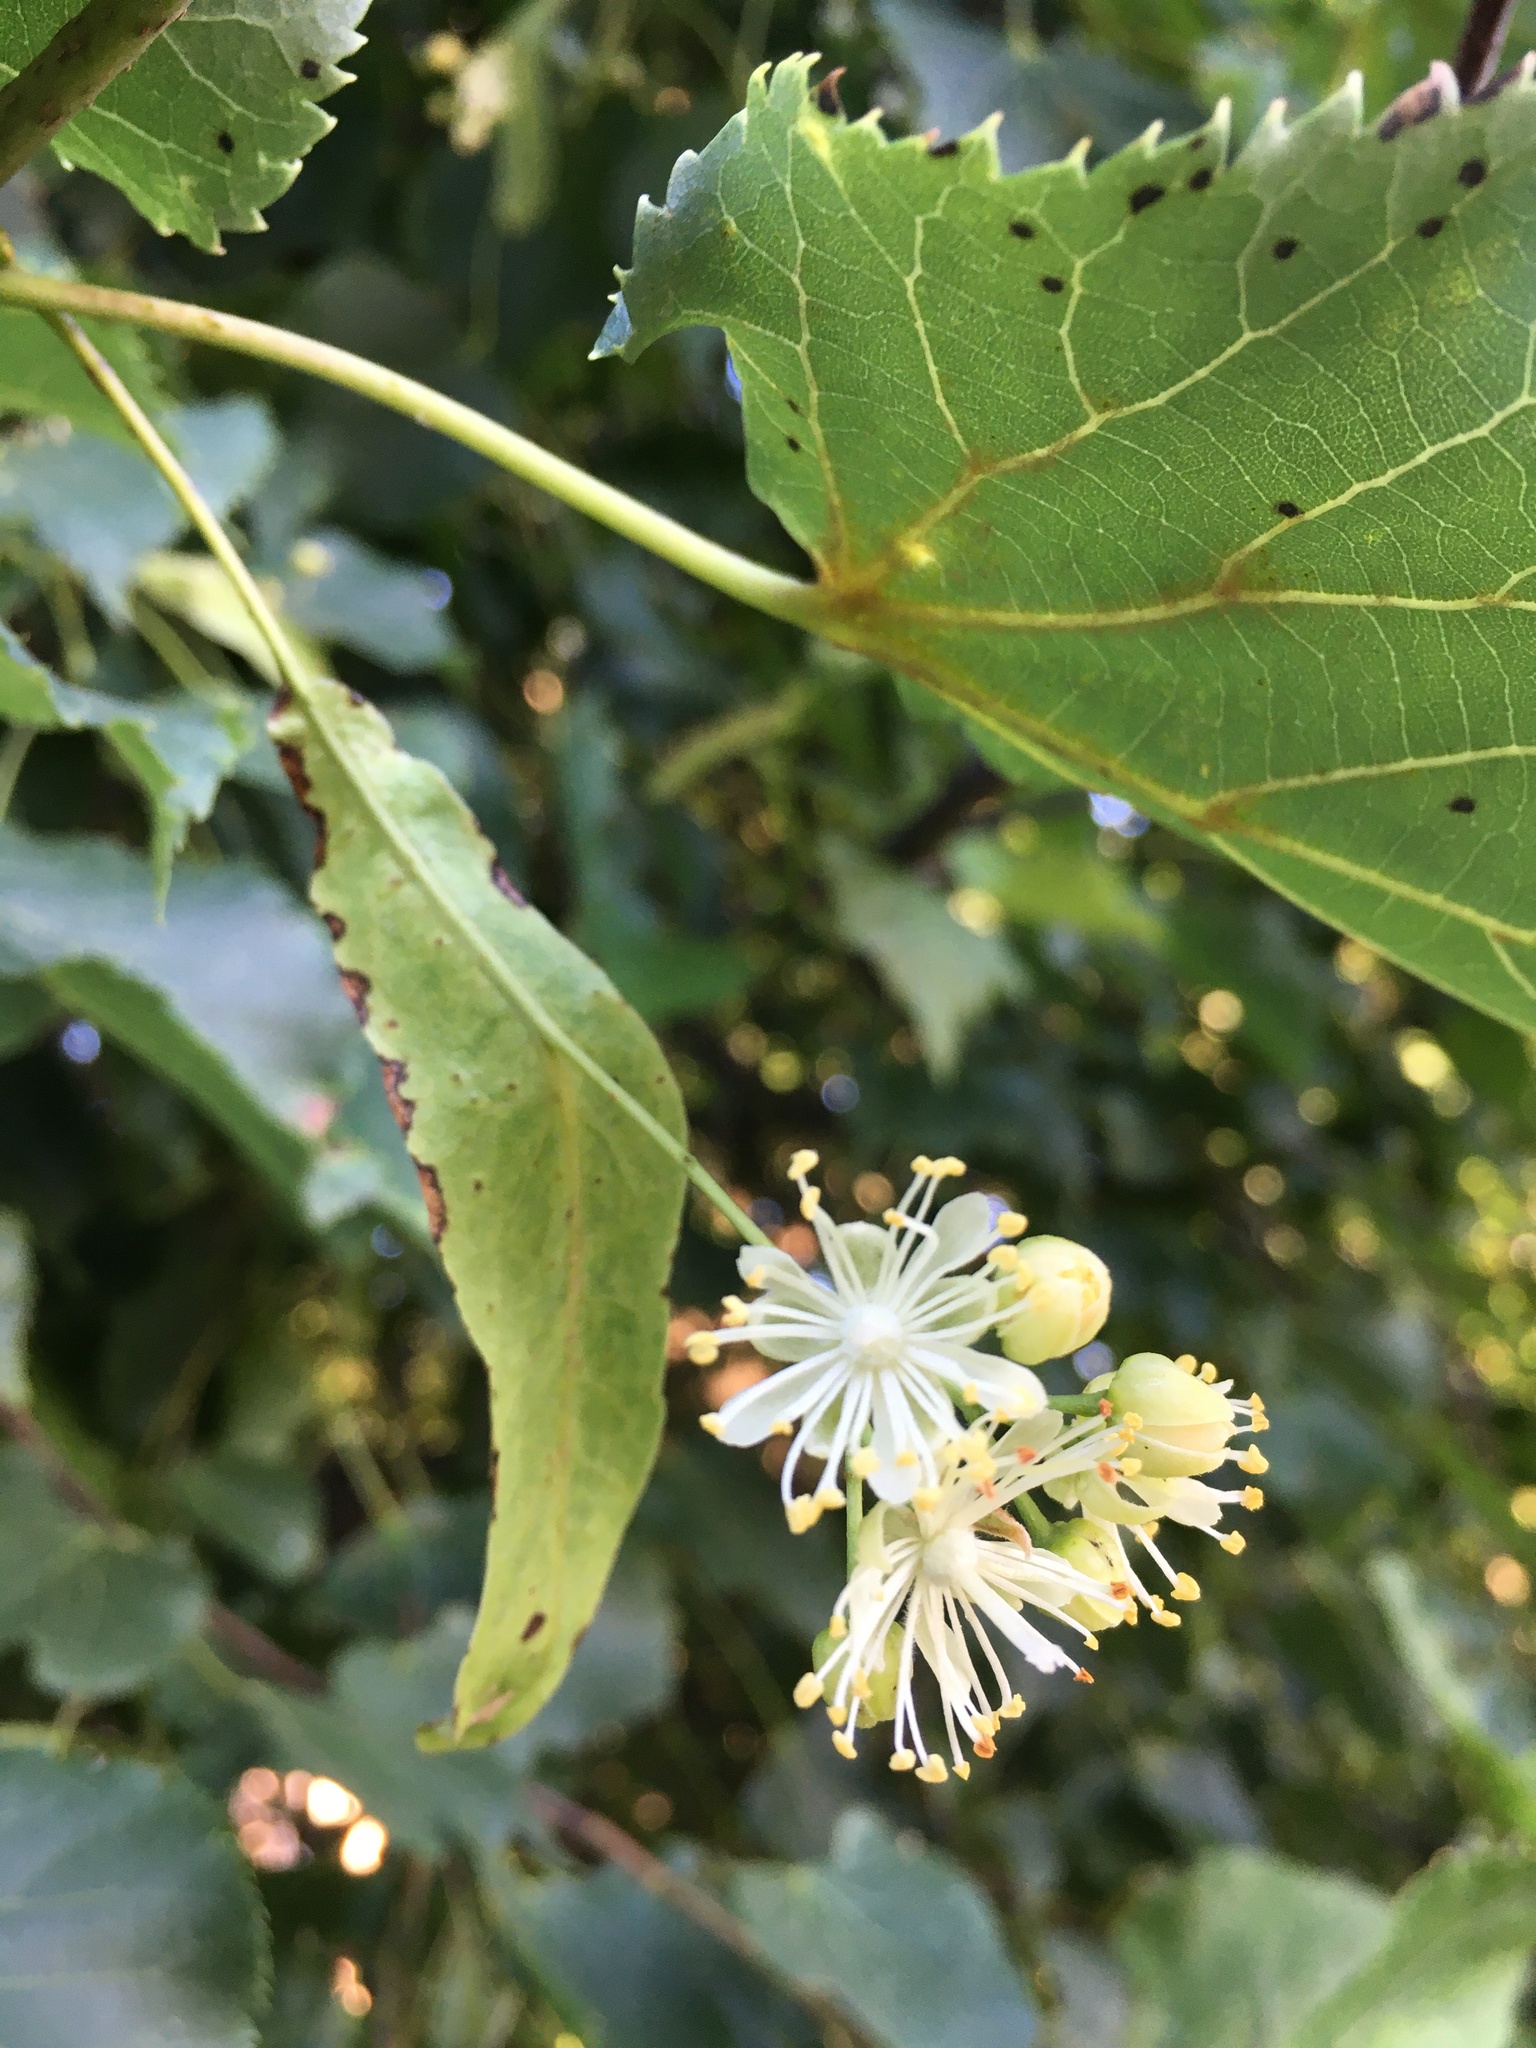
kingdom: Plantae
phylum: Tracheophyta
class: Magnoliopsida
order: Malvales
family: Malvaceae
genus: Tilia
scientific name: Tilia cordata
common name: Small-leaved lime
